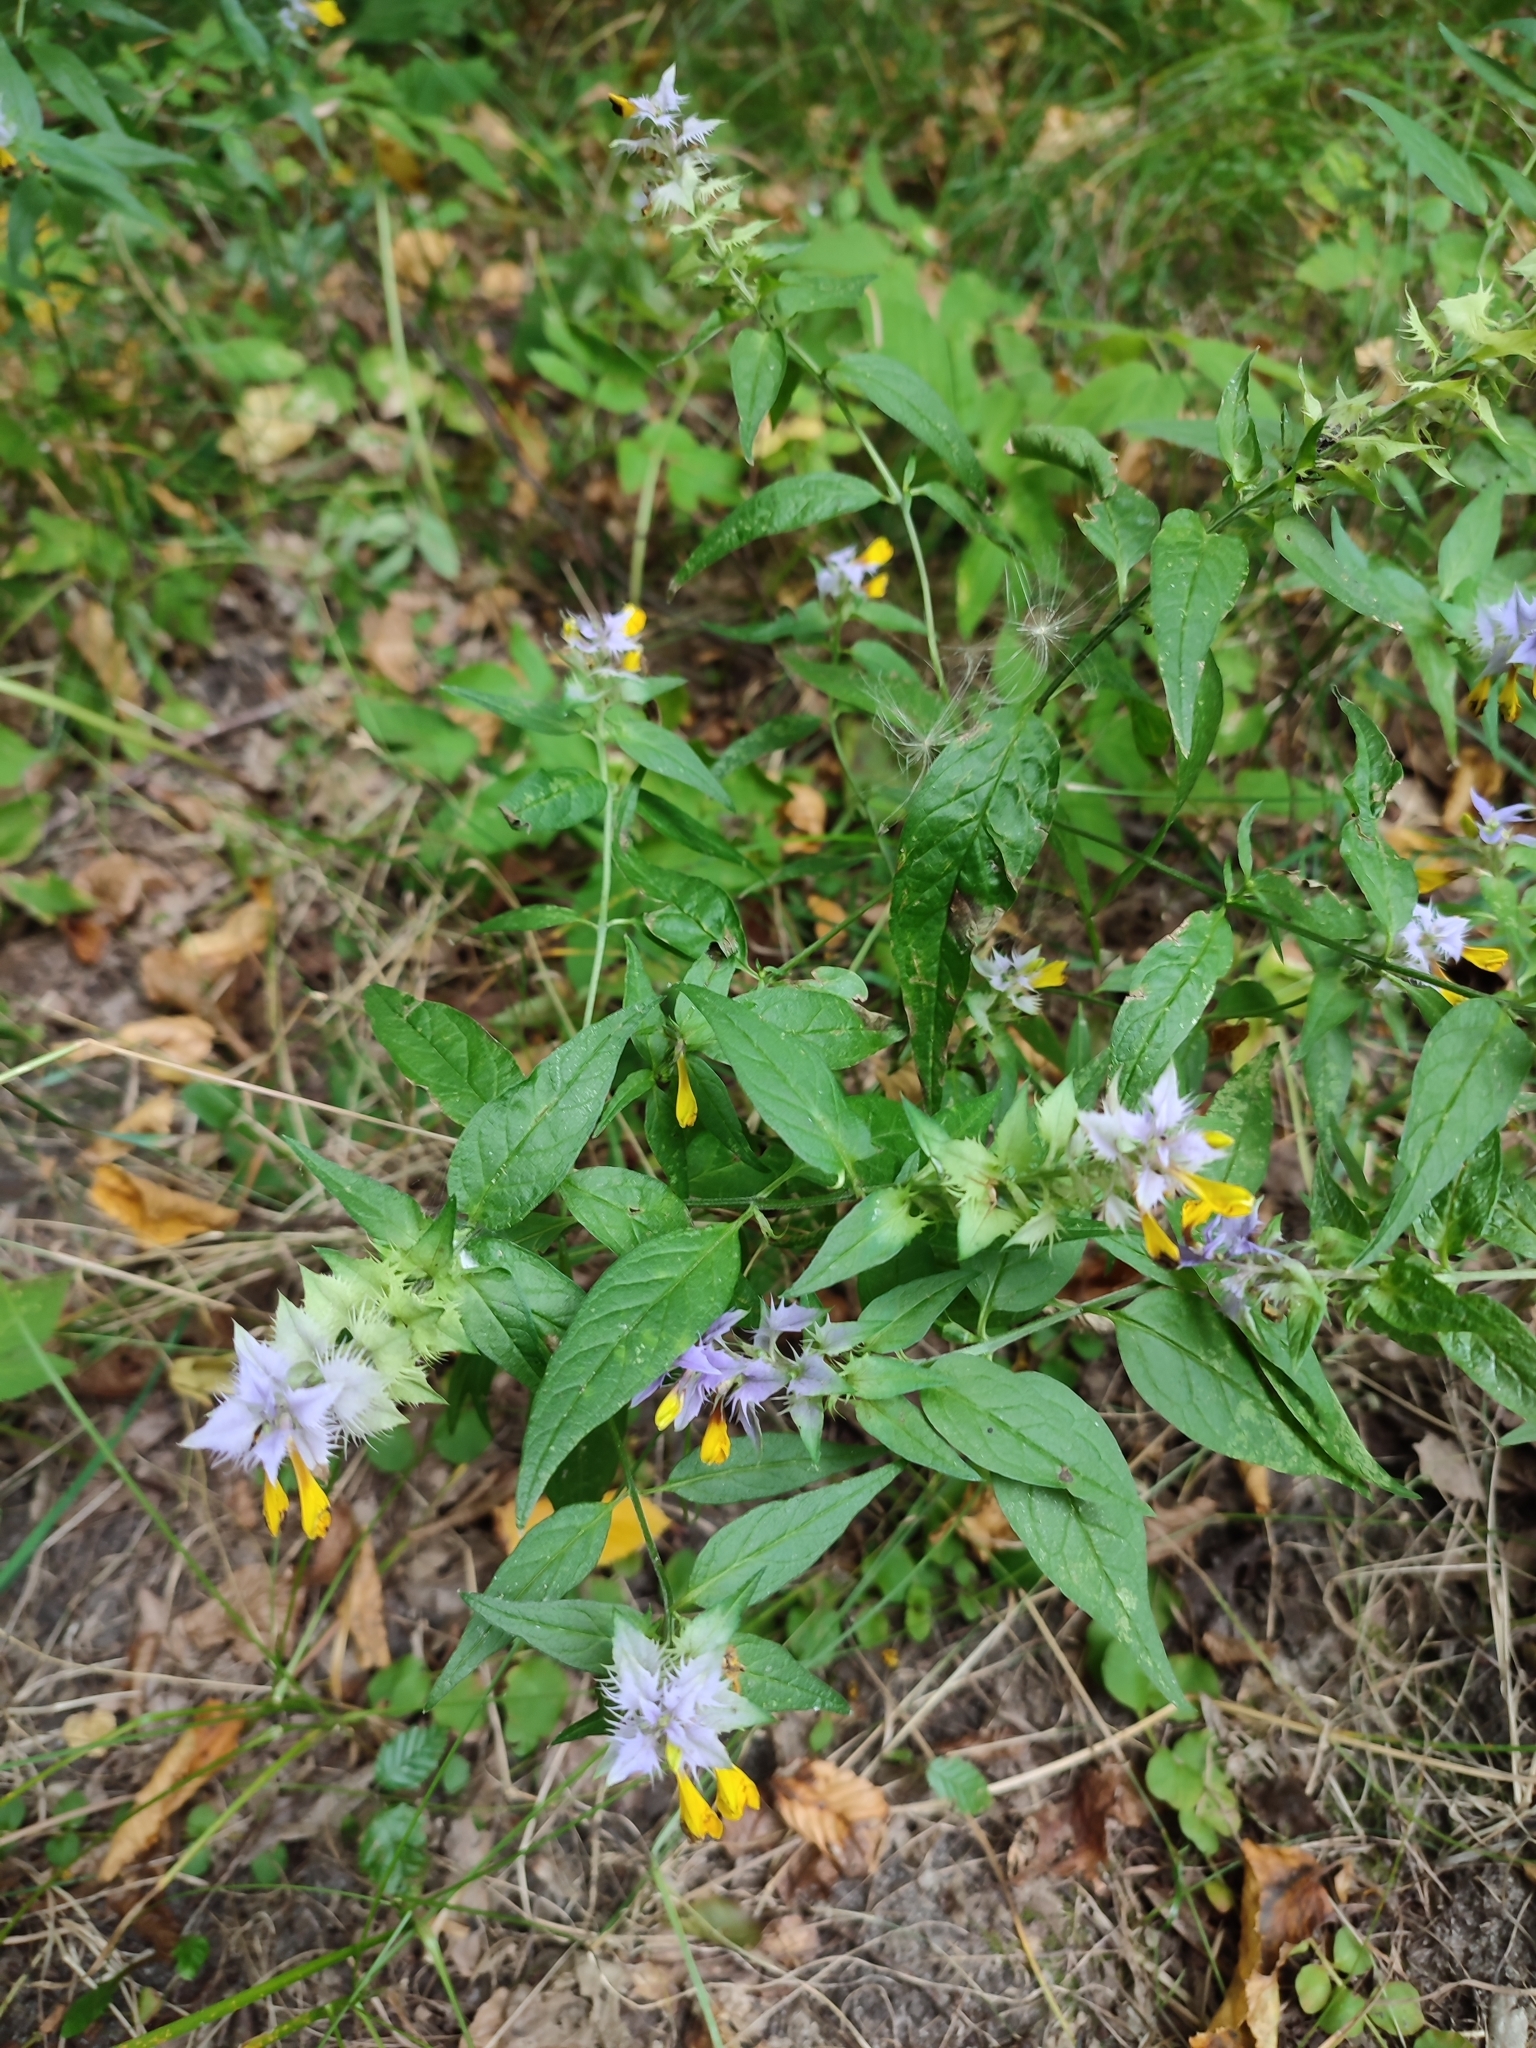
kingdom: Plantae
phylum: Tracheophyta
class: Magnoliopsida
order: Lamiales
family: Orobanchaceae
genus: Melampyrum
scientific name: Melampyrum nemorosum
